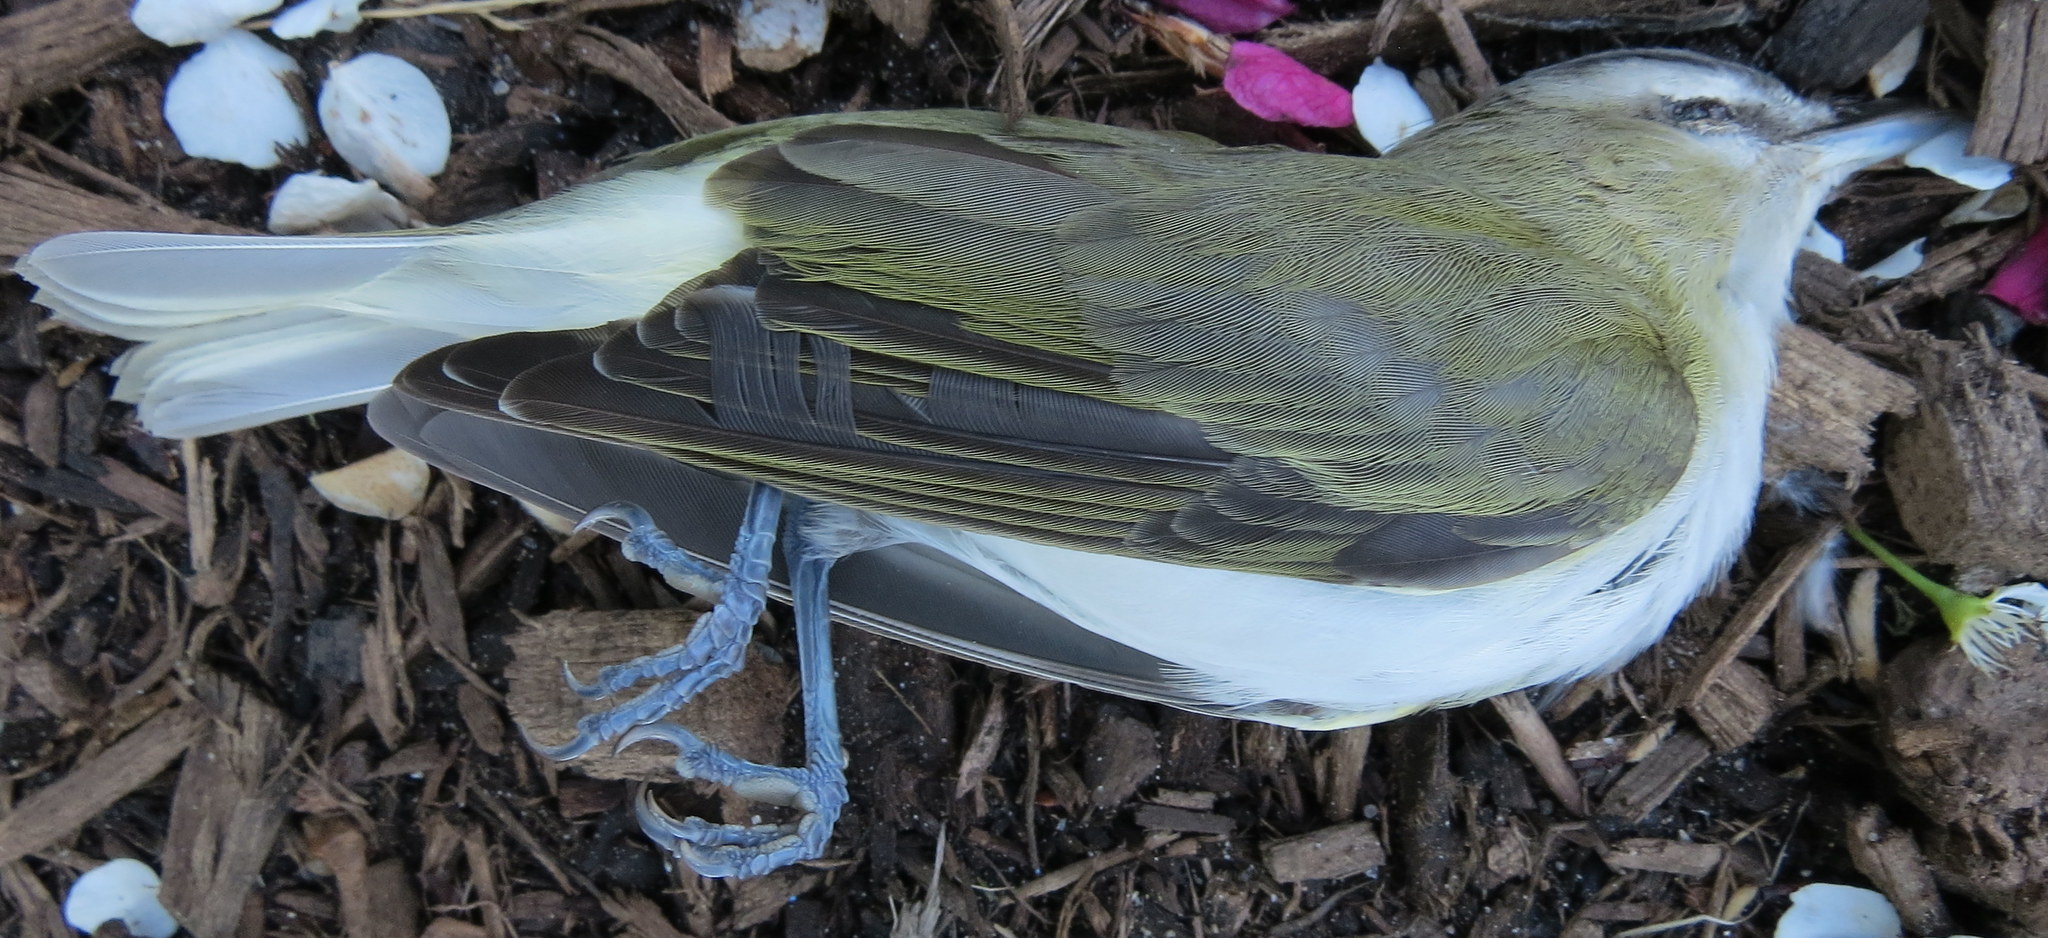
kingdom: Animalia
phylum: Chordata
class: Aves
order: Passeriformes
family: Vireonidae
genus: Vireo
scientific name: Vireo olivaceus
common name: Red-eyed vireo
